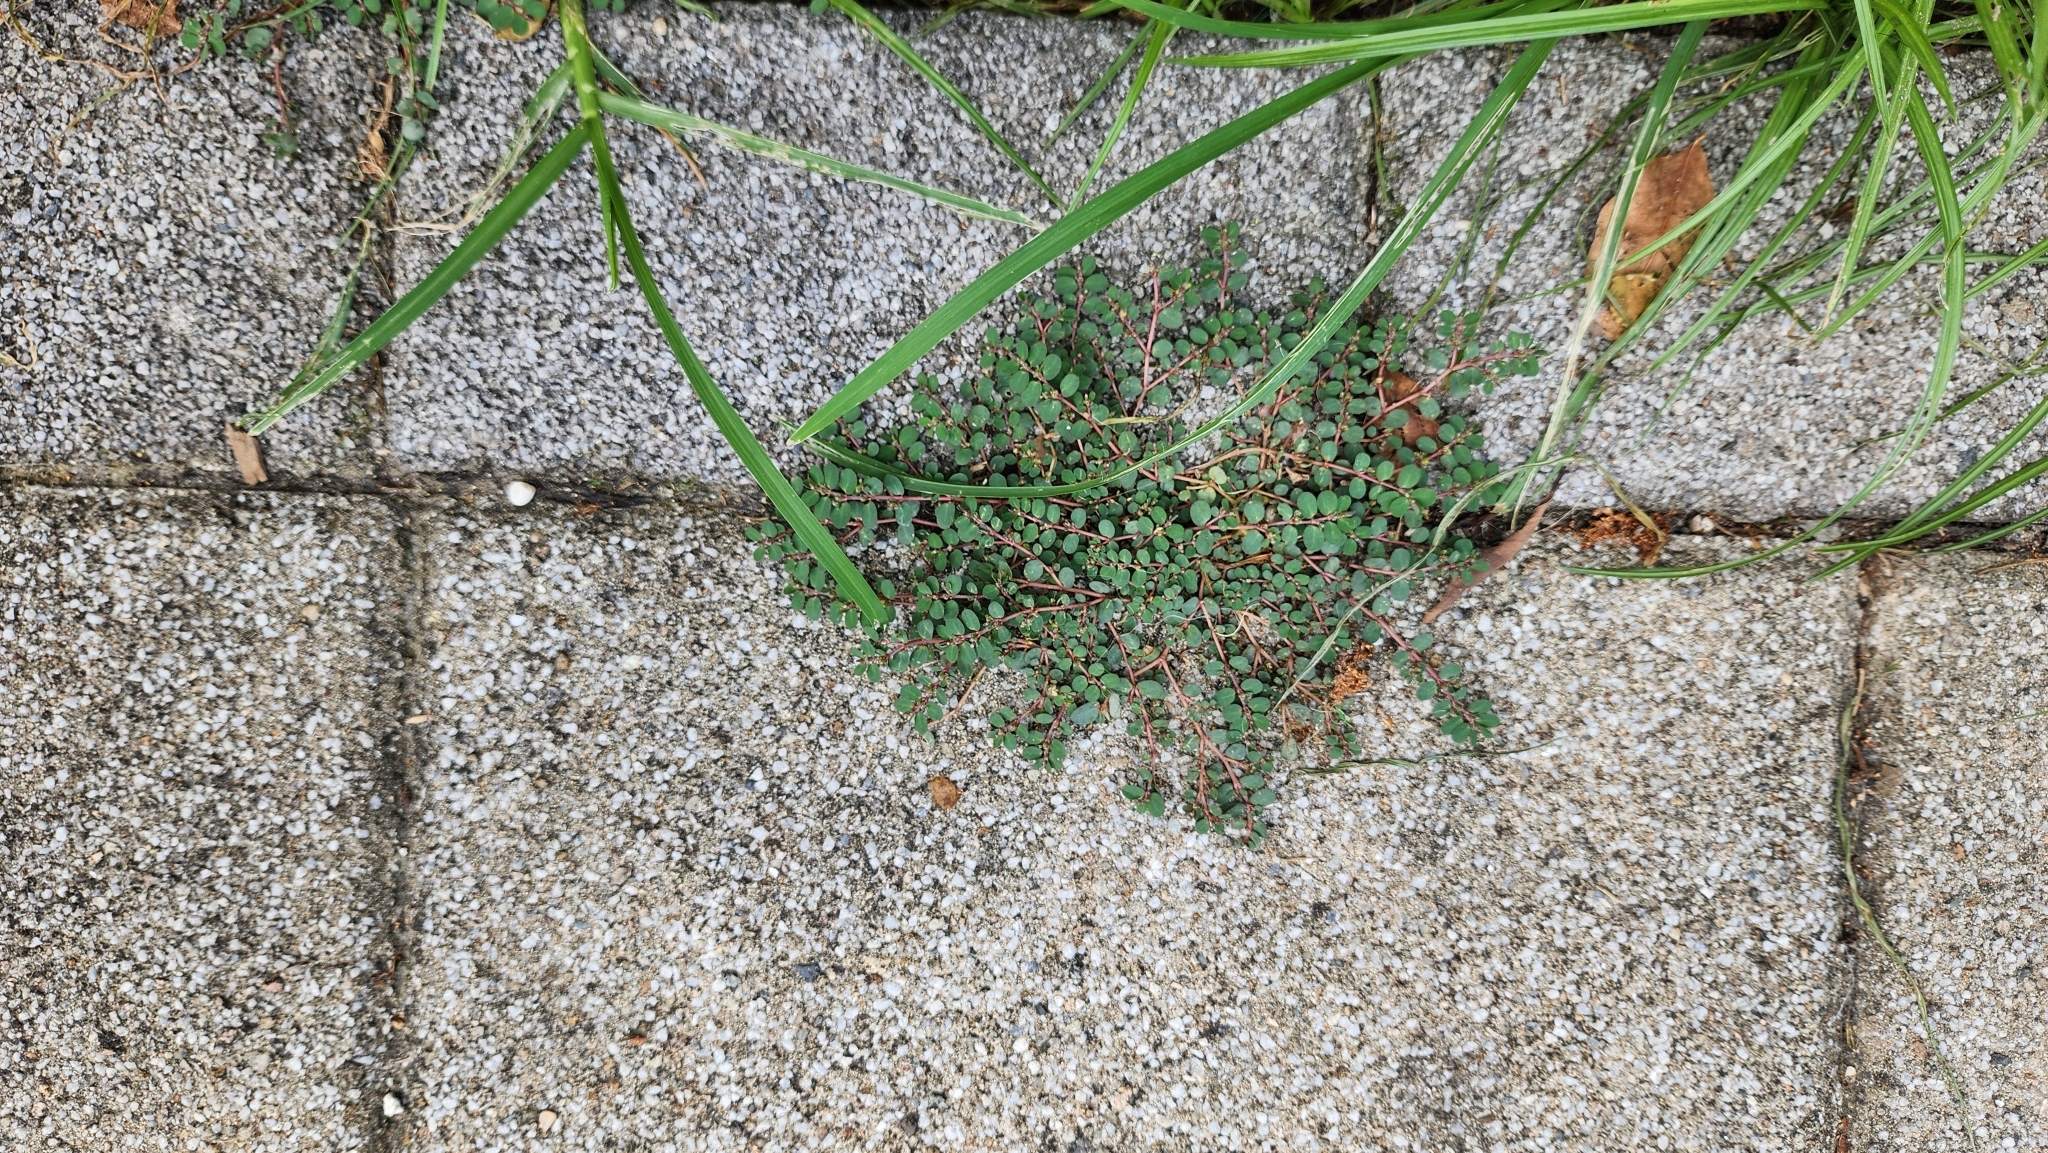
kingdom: Plantae
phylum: Tracheophyta
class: Magnoliopsida
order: Malpighiales
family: Euphorbiaceae
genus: Euphorbia
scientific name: Euphorbia prostrata
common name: Prostrate sandmat
